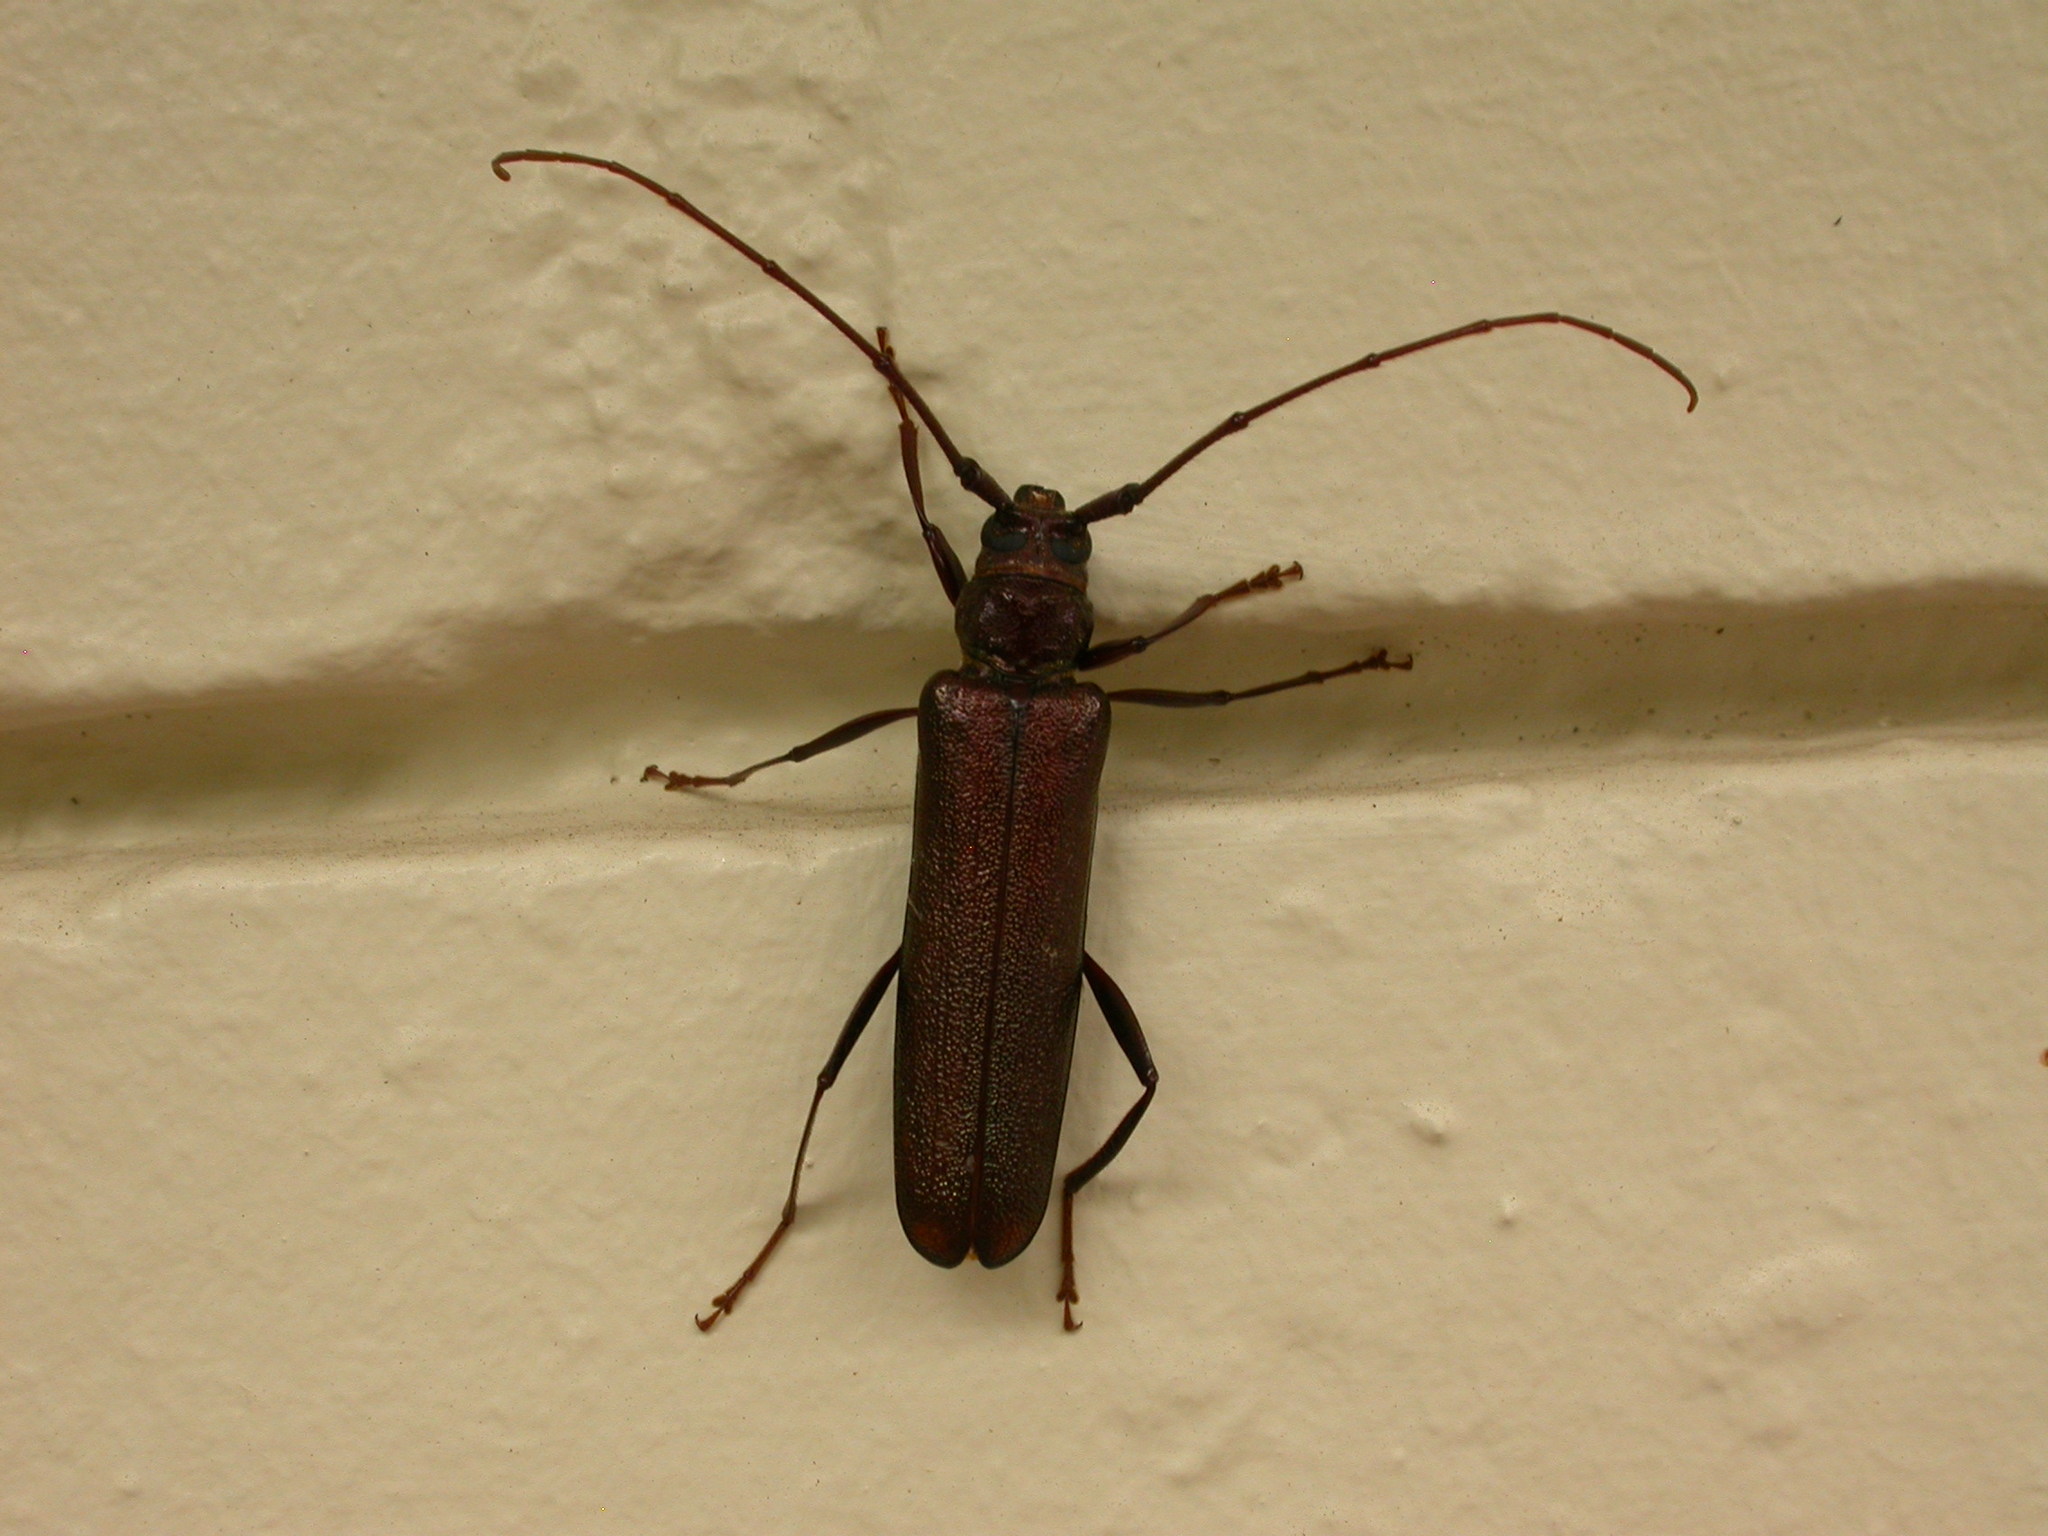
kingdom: Animalia
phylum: Arthropoda
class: Insecta
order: Coleoptera
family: Cerambycidae
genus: Xystrocera
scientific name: Xystrocera virescens
